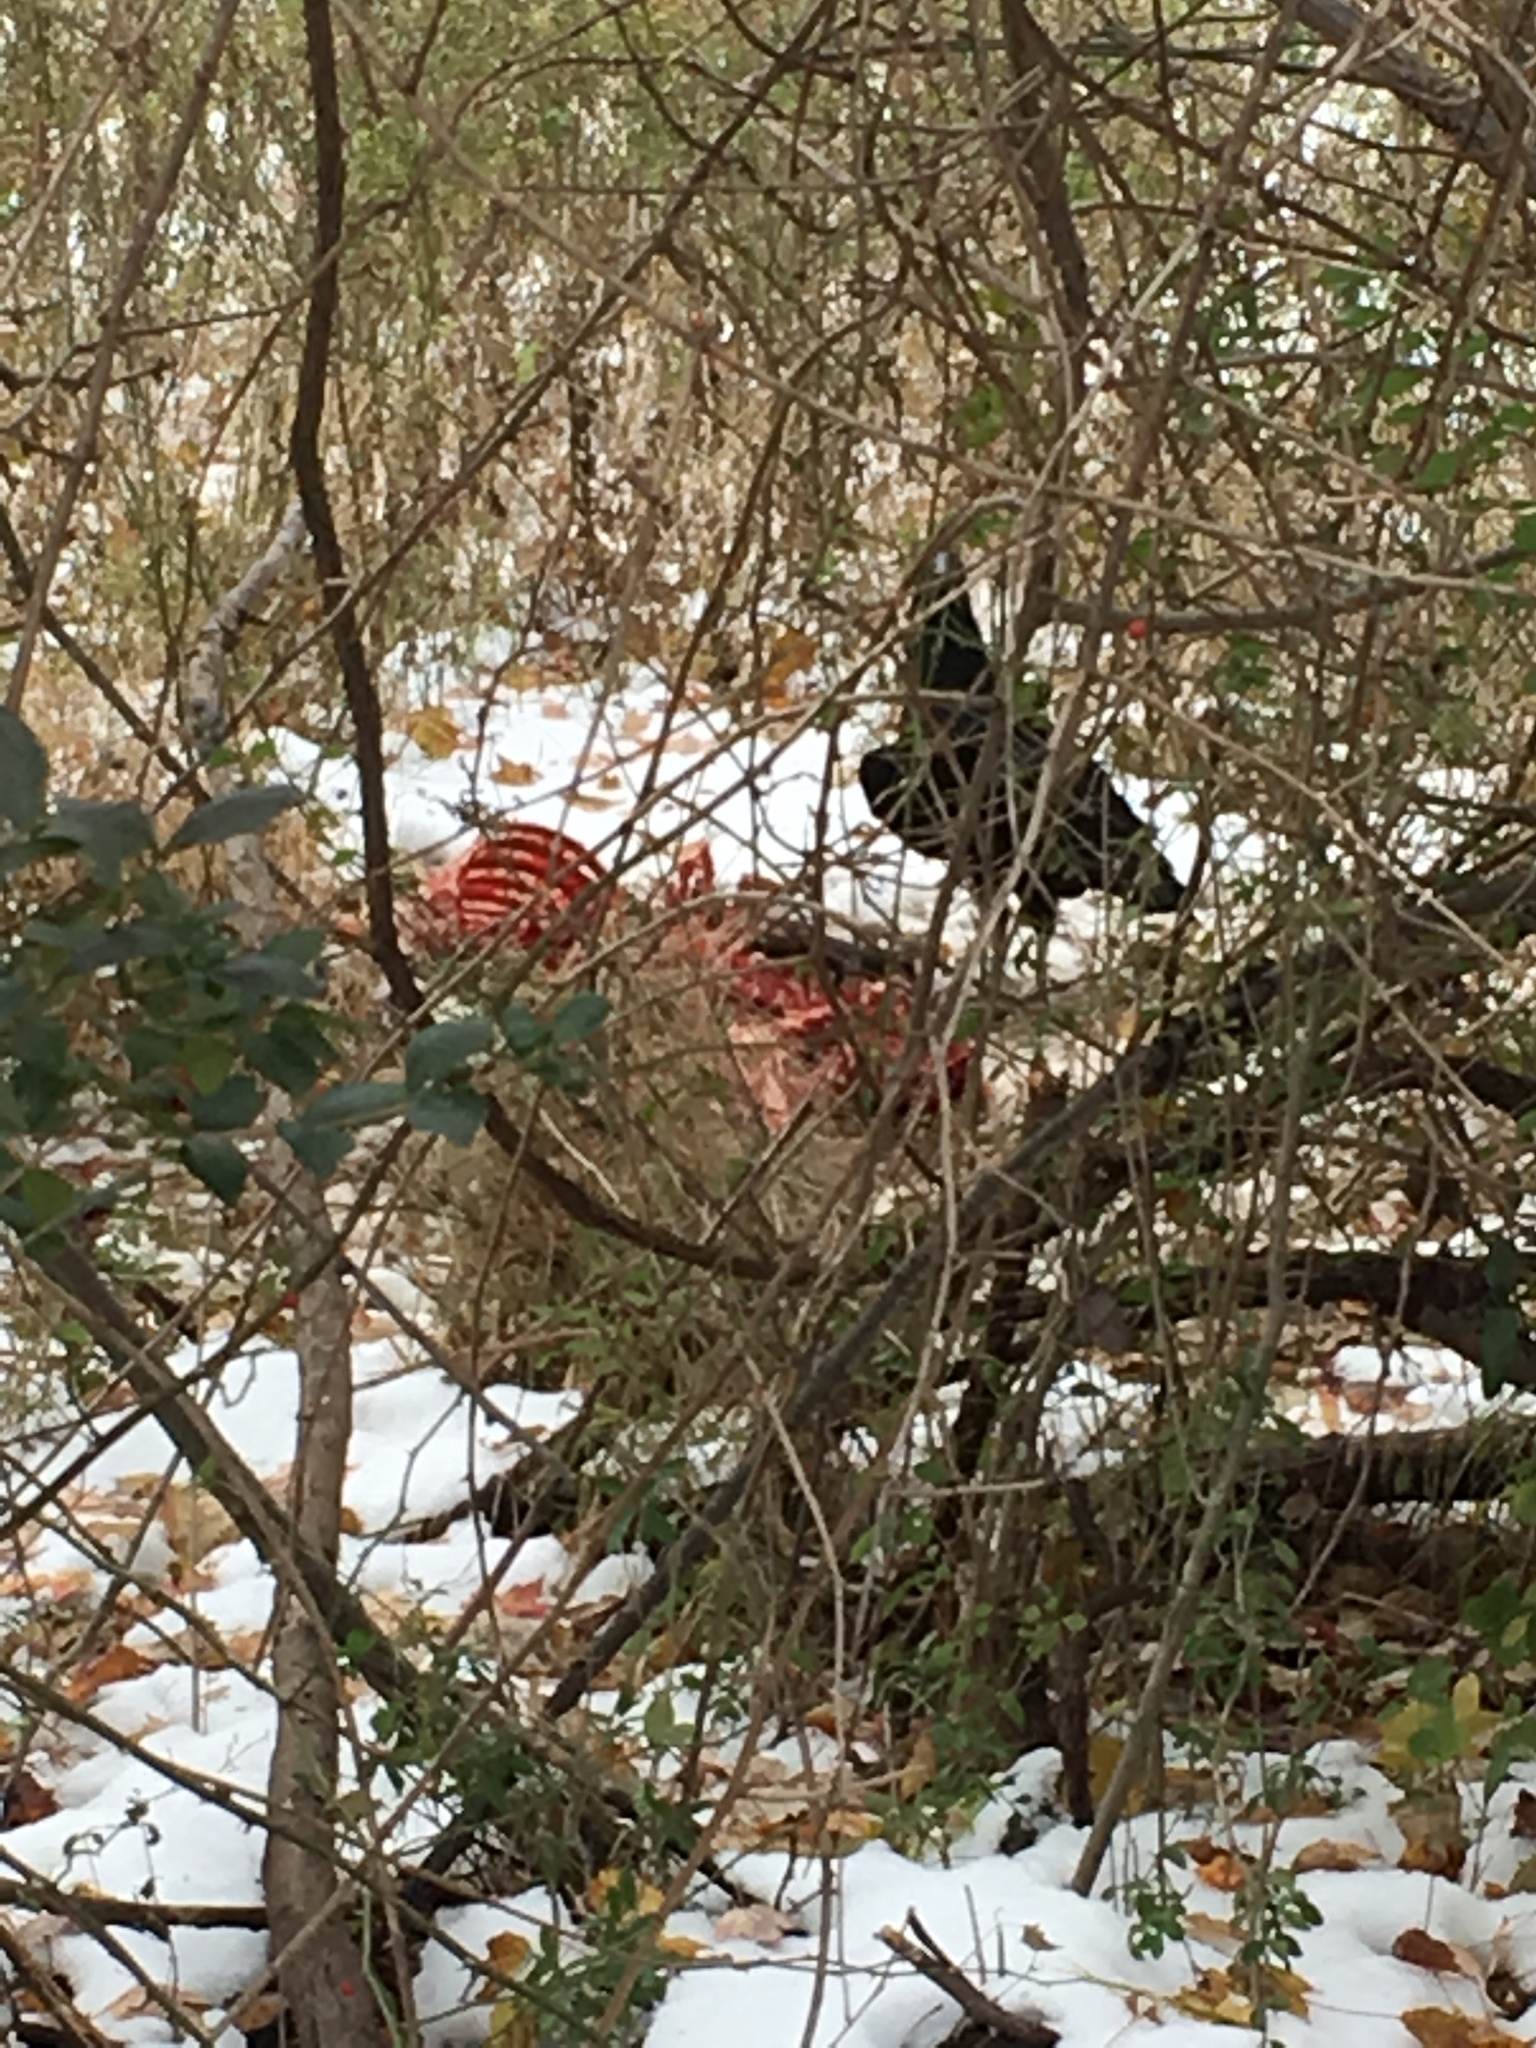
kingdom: Animalia
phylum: Chordata
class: Aves
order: Accipitriformes
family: Cathartidae
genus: Cathartes
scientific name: Cathartes aura
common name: Turkey vulture
